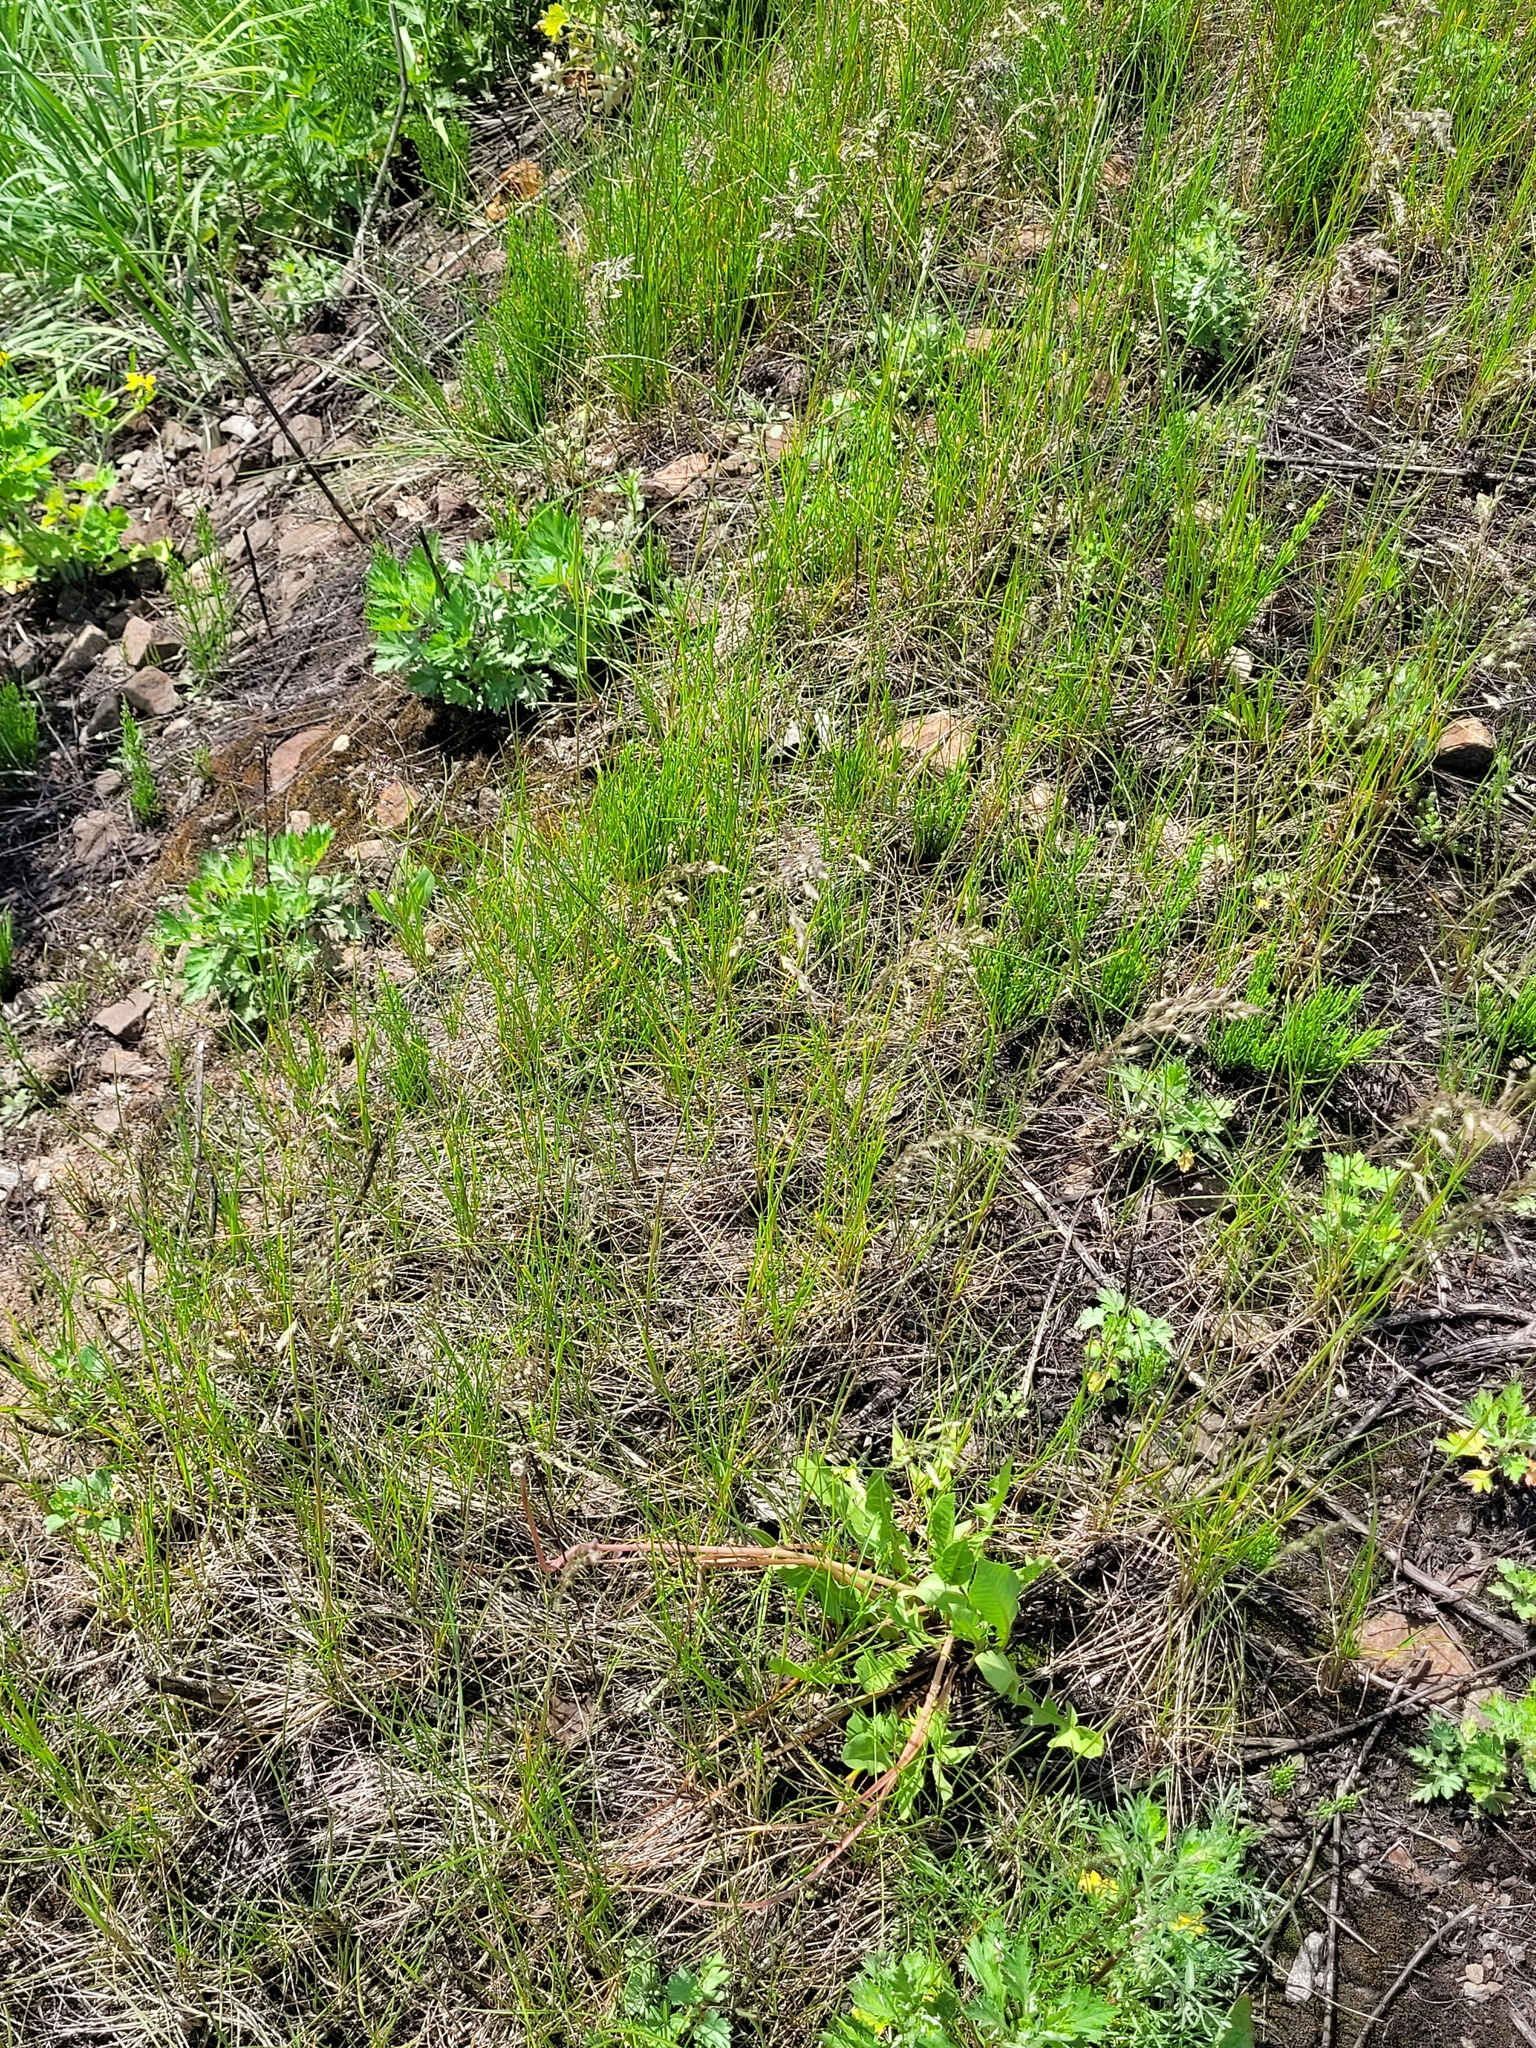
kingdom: Plantae
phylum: Tracheophyta
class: Liliopsida
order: Poales
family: Poaceae
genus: Poa
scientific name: Poa angustifolia
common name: Narrow-leaved meadow-grass
